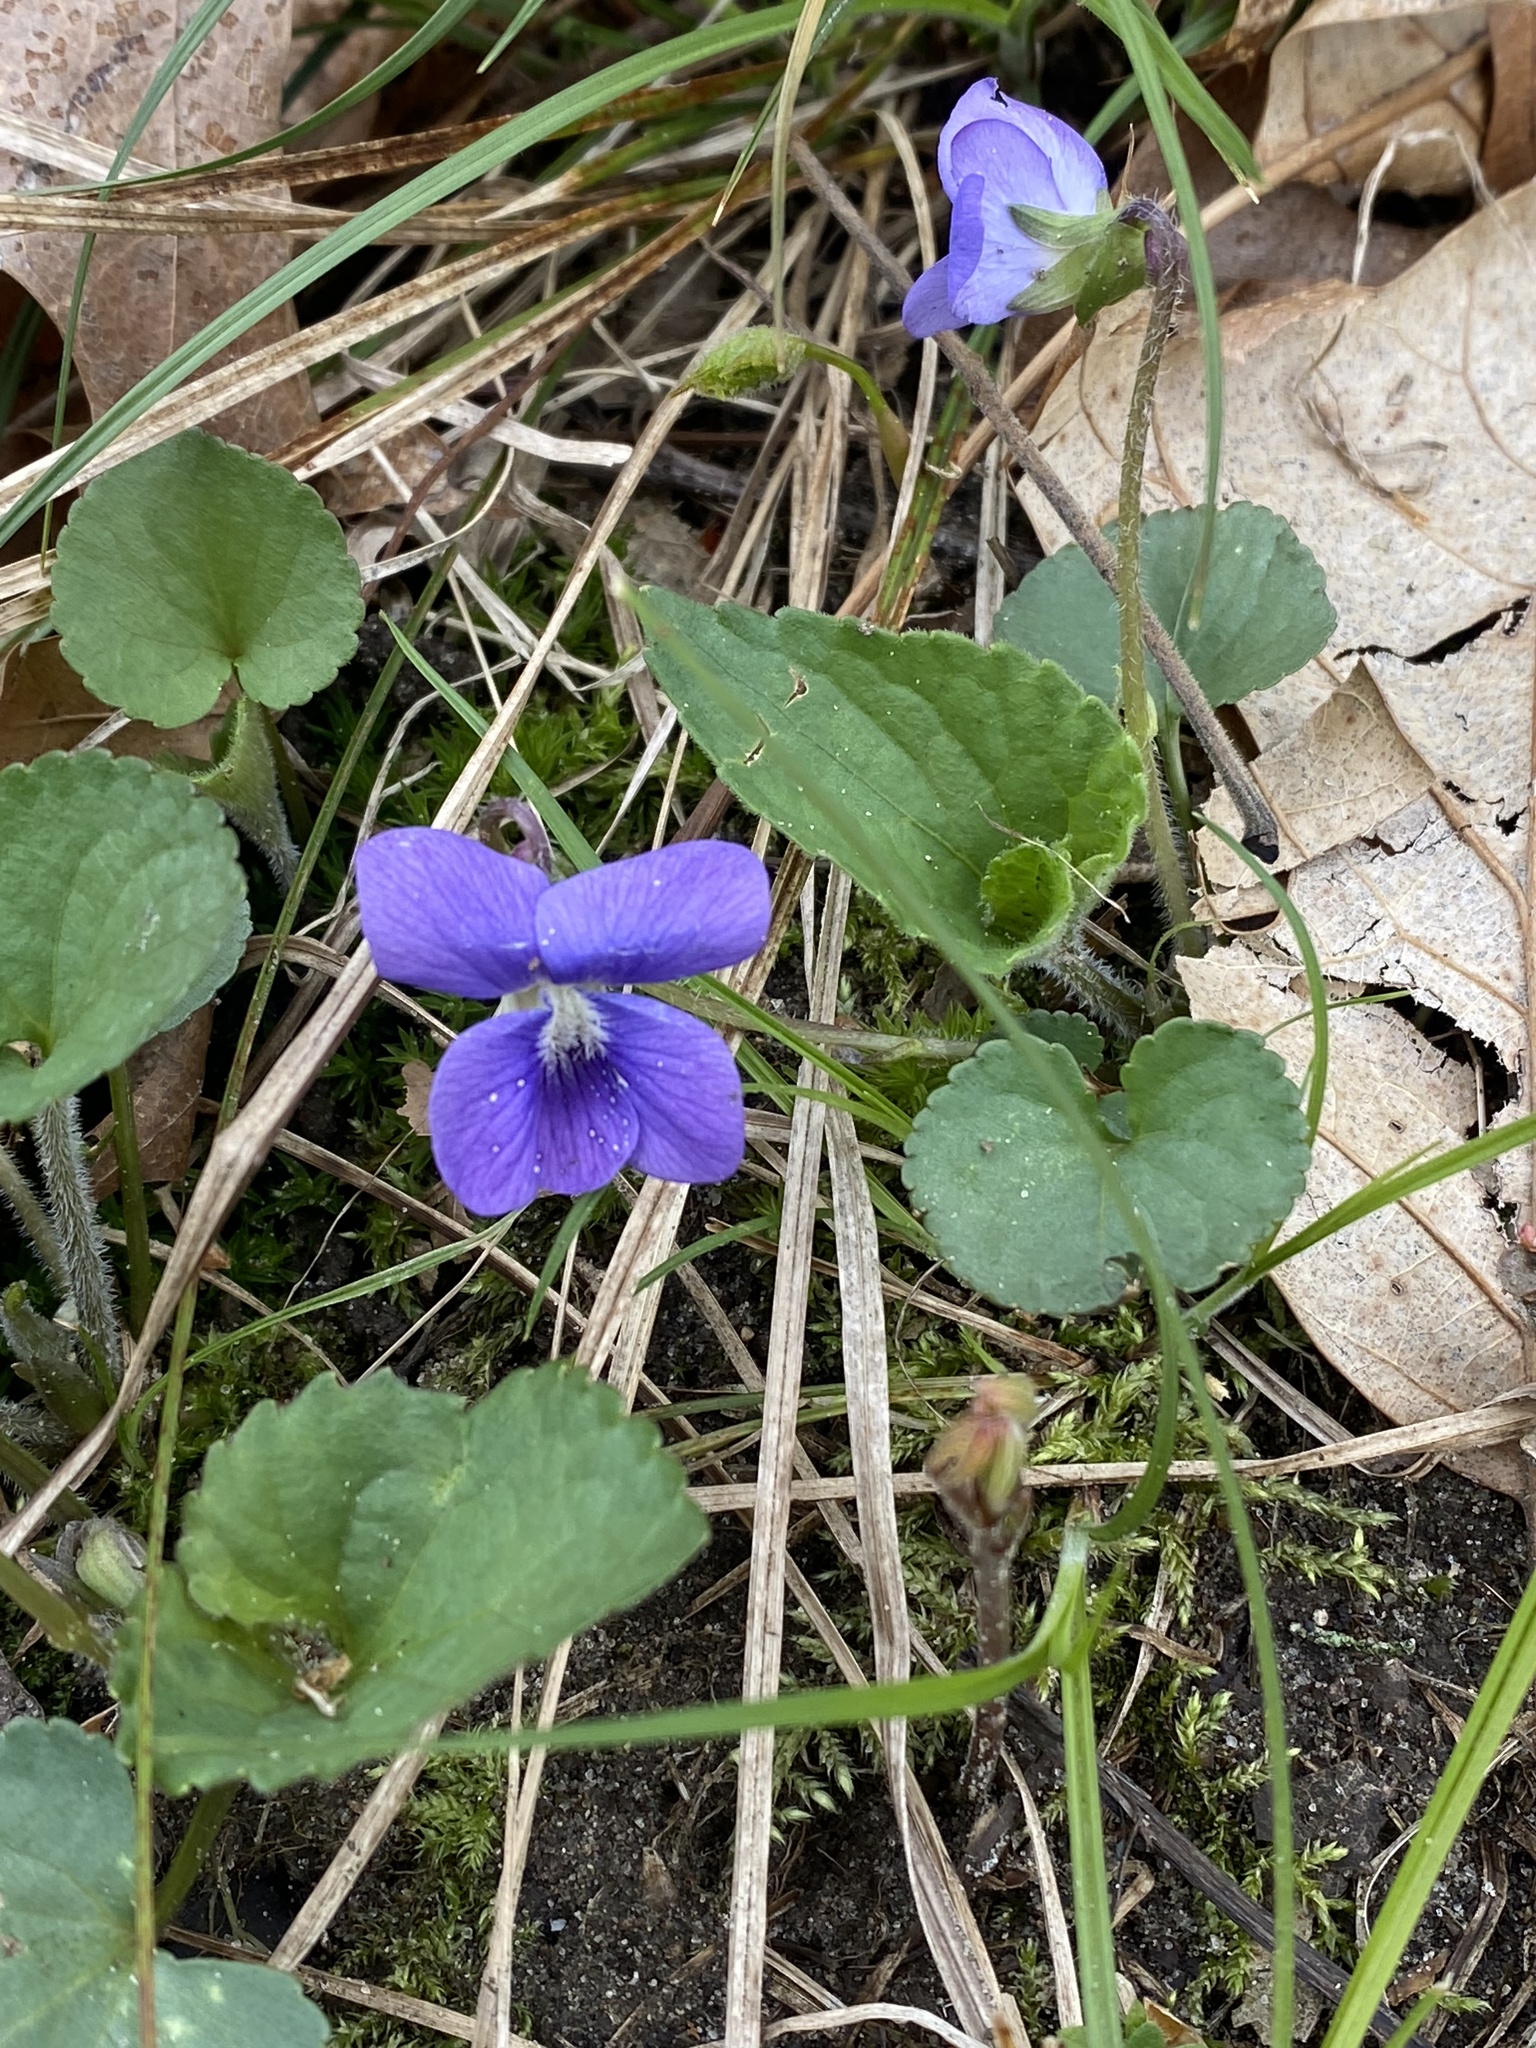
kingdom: Plantae
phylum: Tracheophyta
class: Magnoliopsida
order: Malpighiales
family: Violaceae
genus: Viola
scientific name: Viola sororia
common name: Dooryard violet
